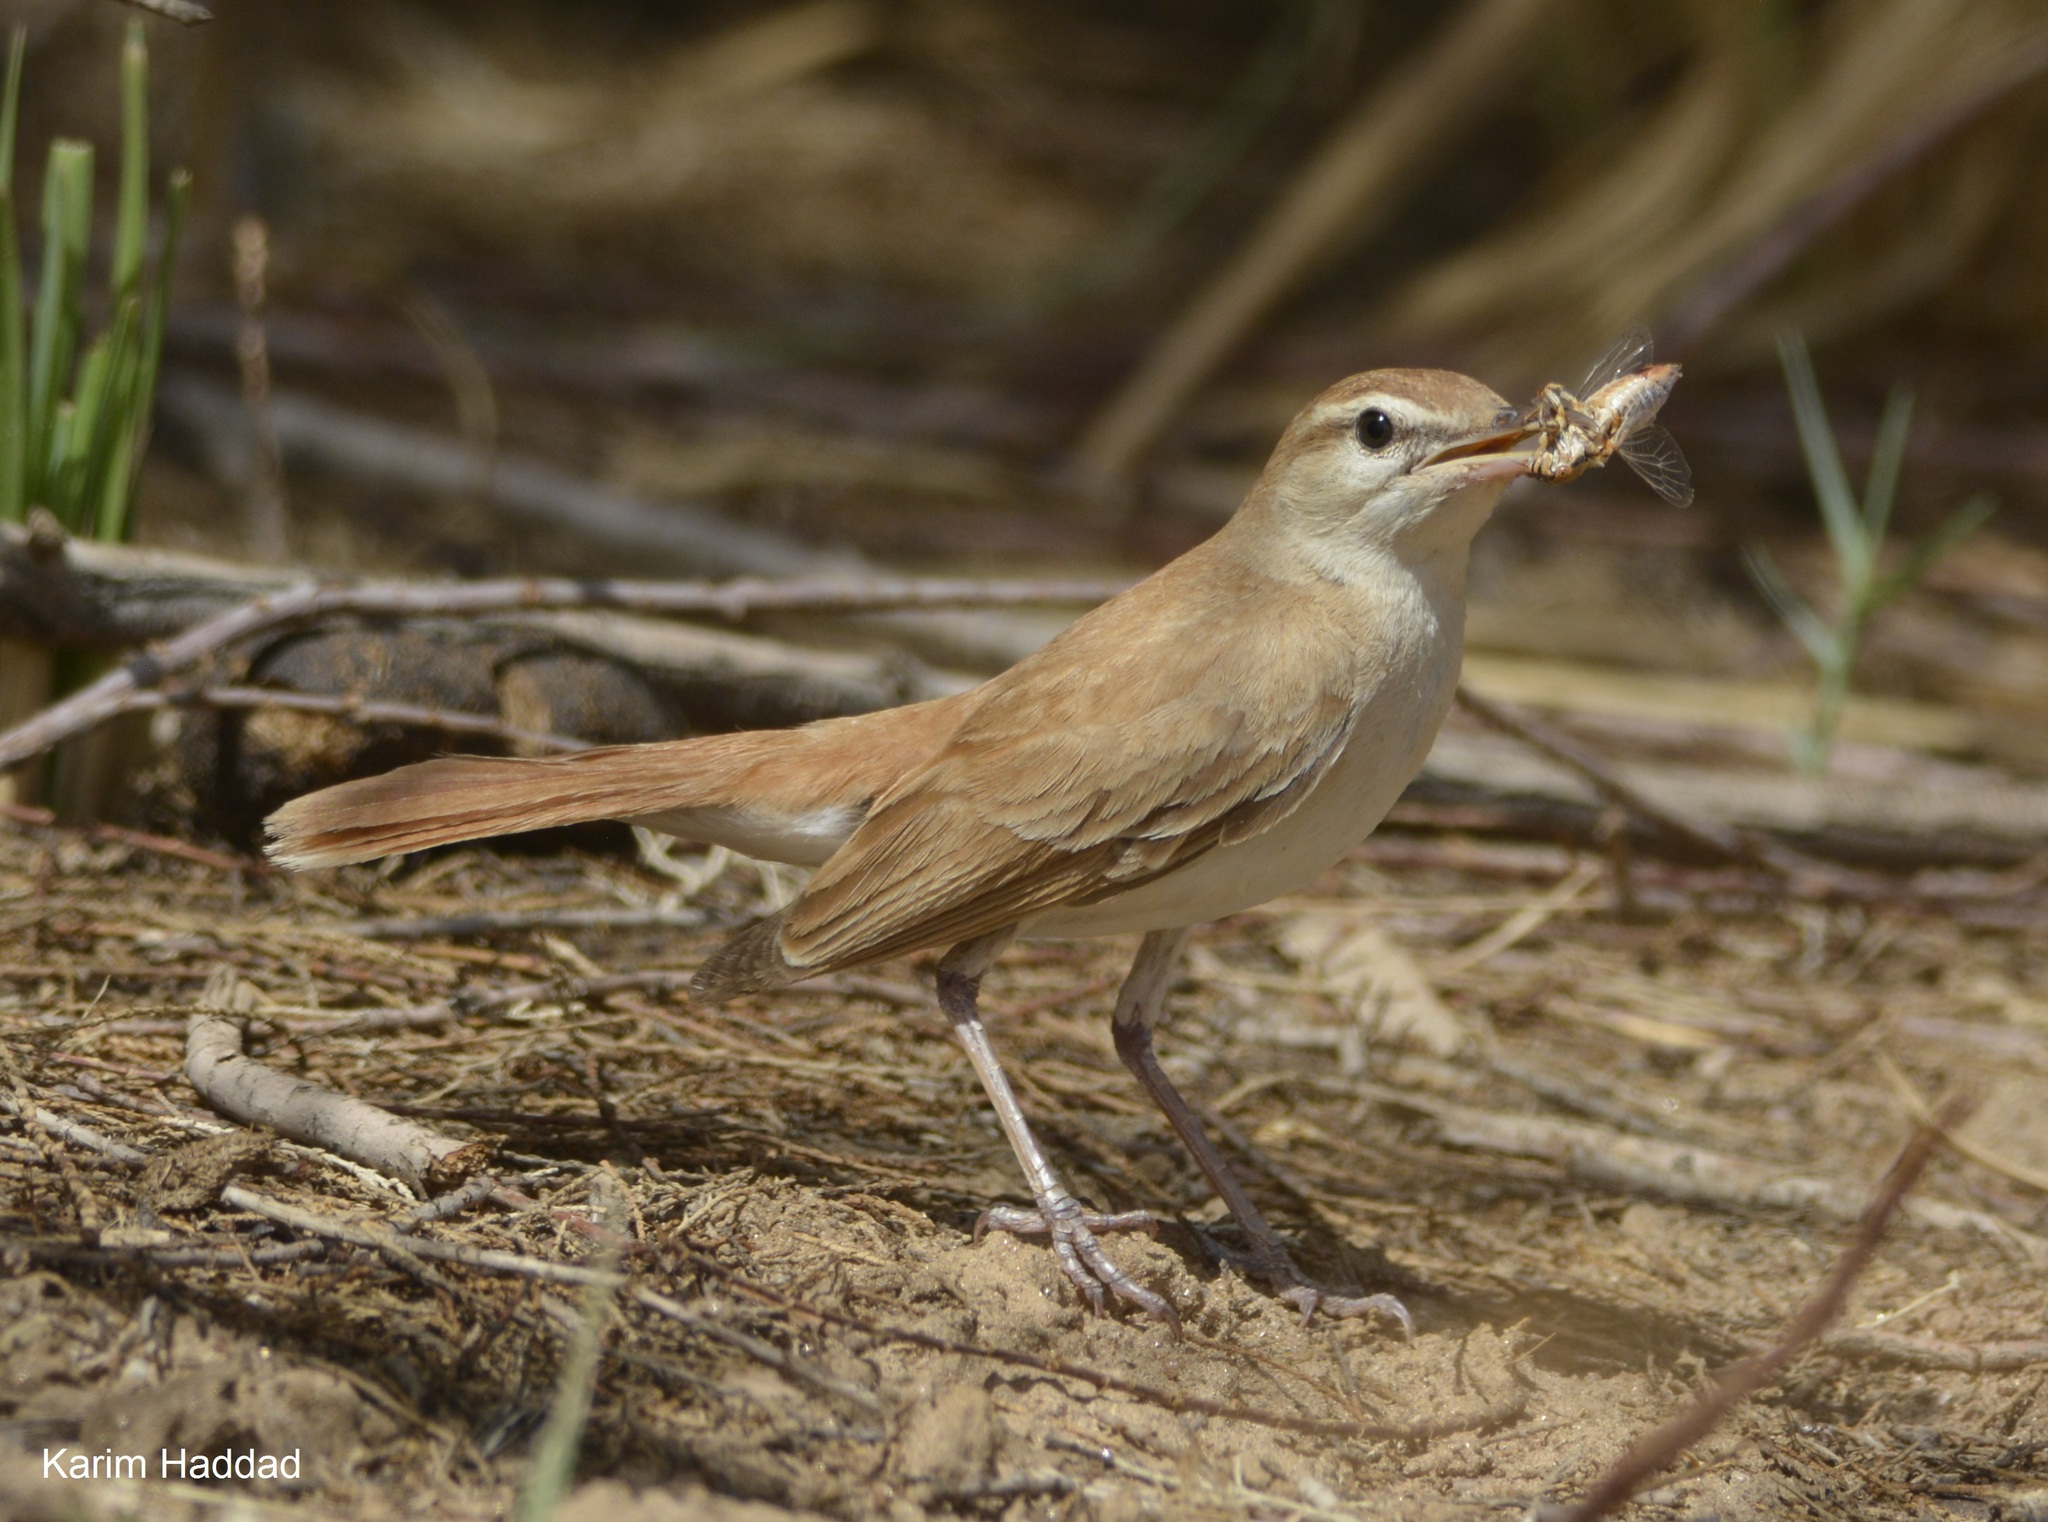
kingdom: Animalia
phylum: Chordata
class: Aves
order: Passeriformes
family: Muscicapidae
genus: Erythropygia
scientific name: Erythropygia galactotes
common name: Rufous-tailed scrub robin
